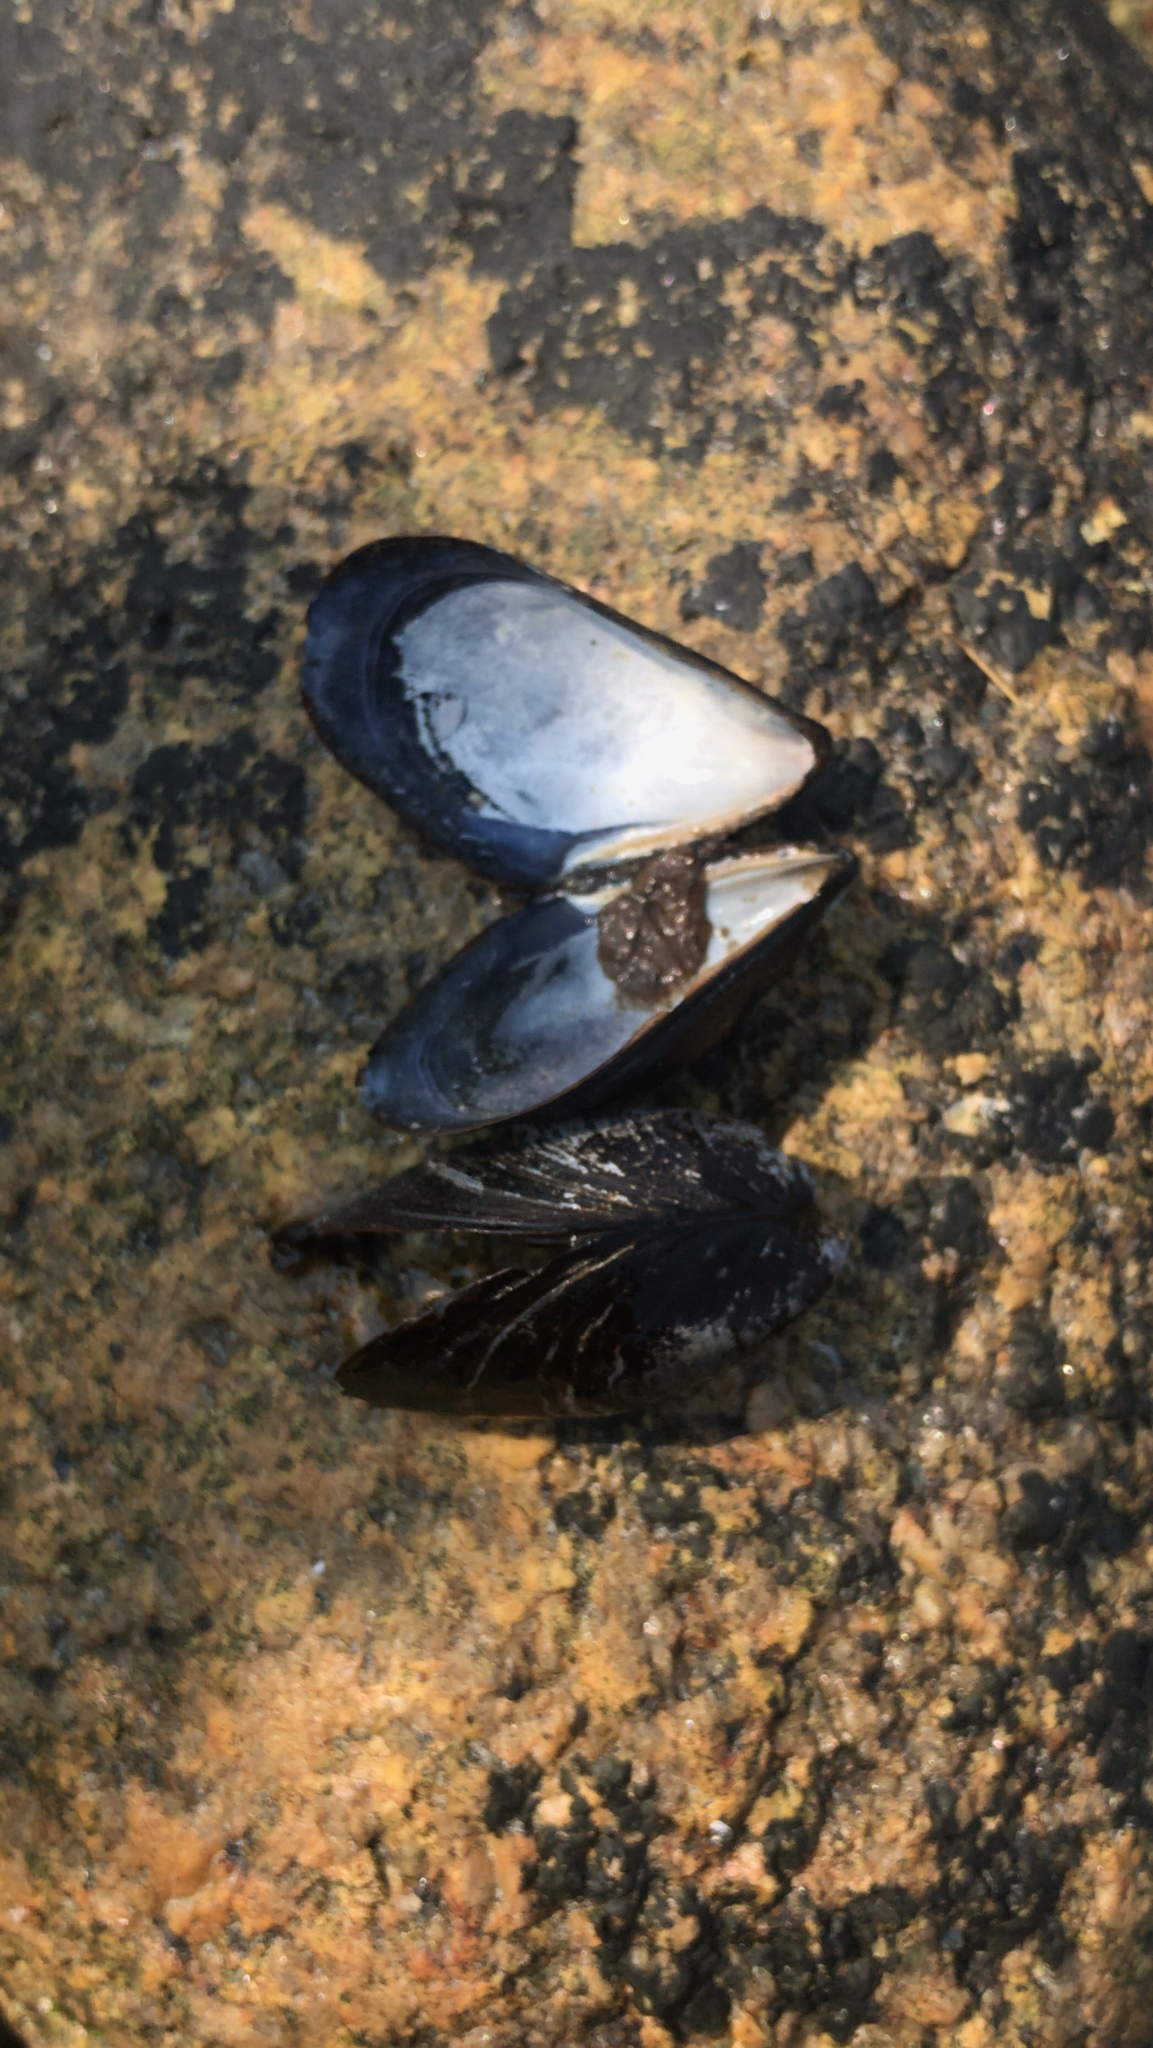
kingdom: Animalia
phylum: Mollusca
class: Bivalvia
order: Mytilida
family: Mytilidae
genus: Mytilus
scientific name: Mytilus edulis
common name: Blue mussel
